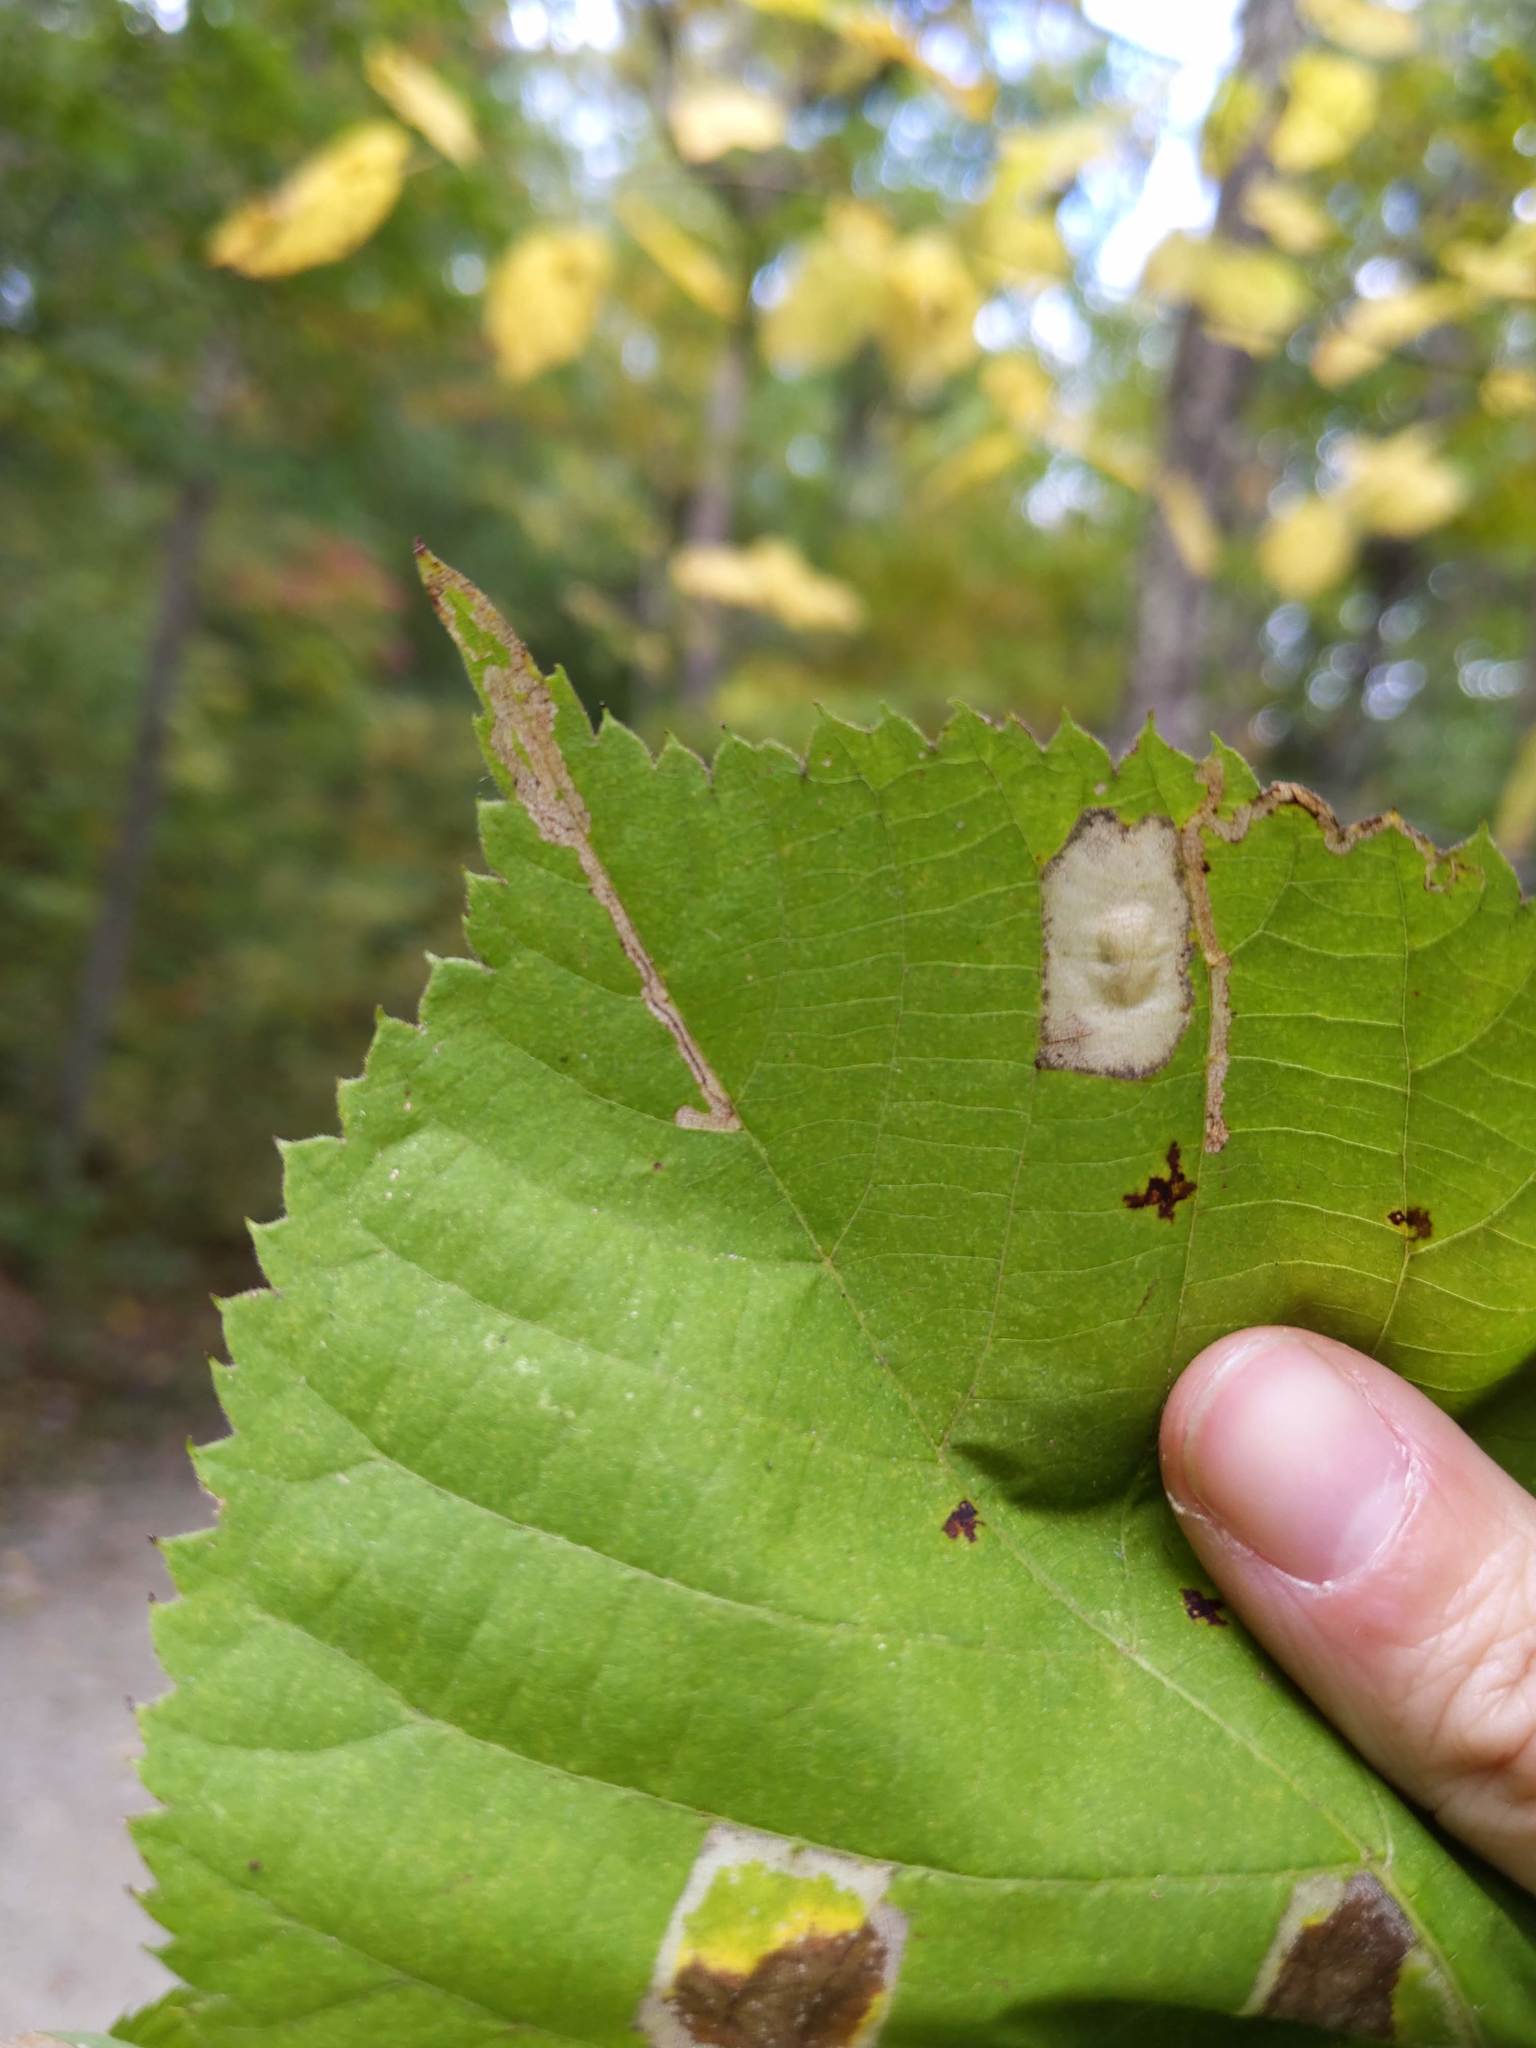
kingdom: Animalia
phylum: Arthropoda
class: Insecta
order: Lepidoptera
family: Nepticulidae
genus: Stigmella
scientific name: Stigmella tiliella
